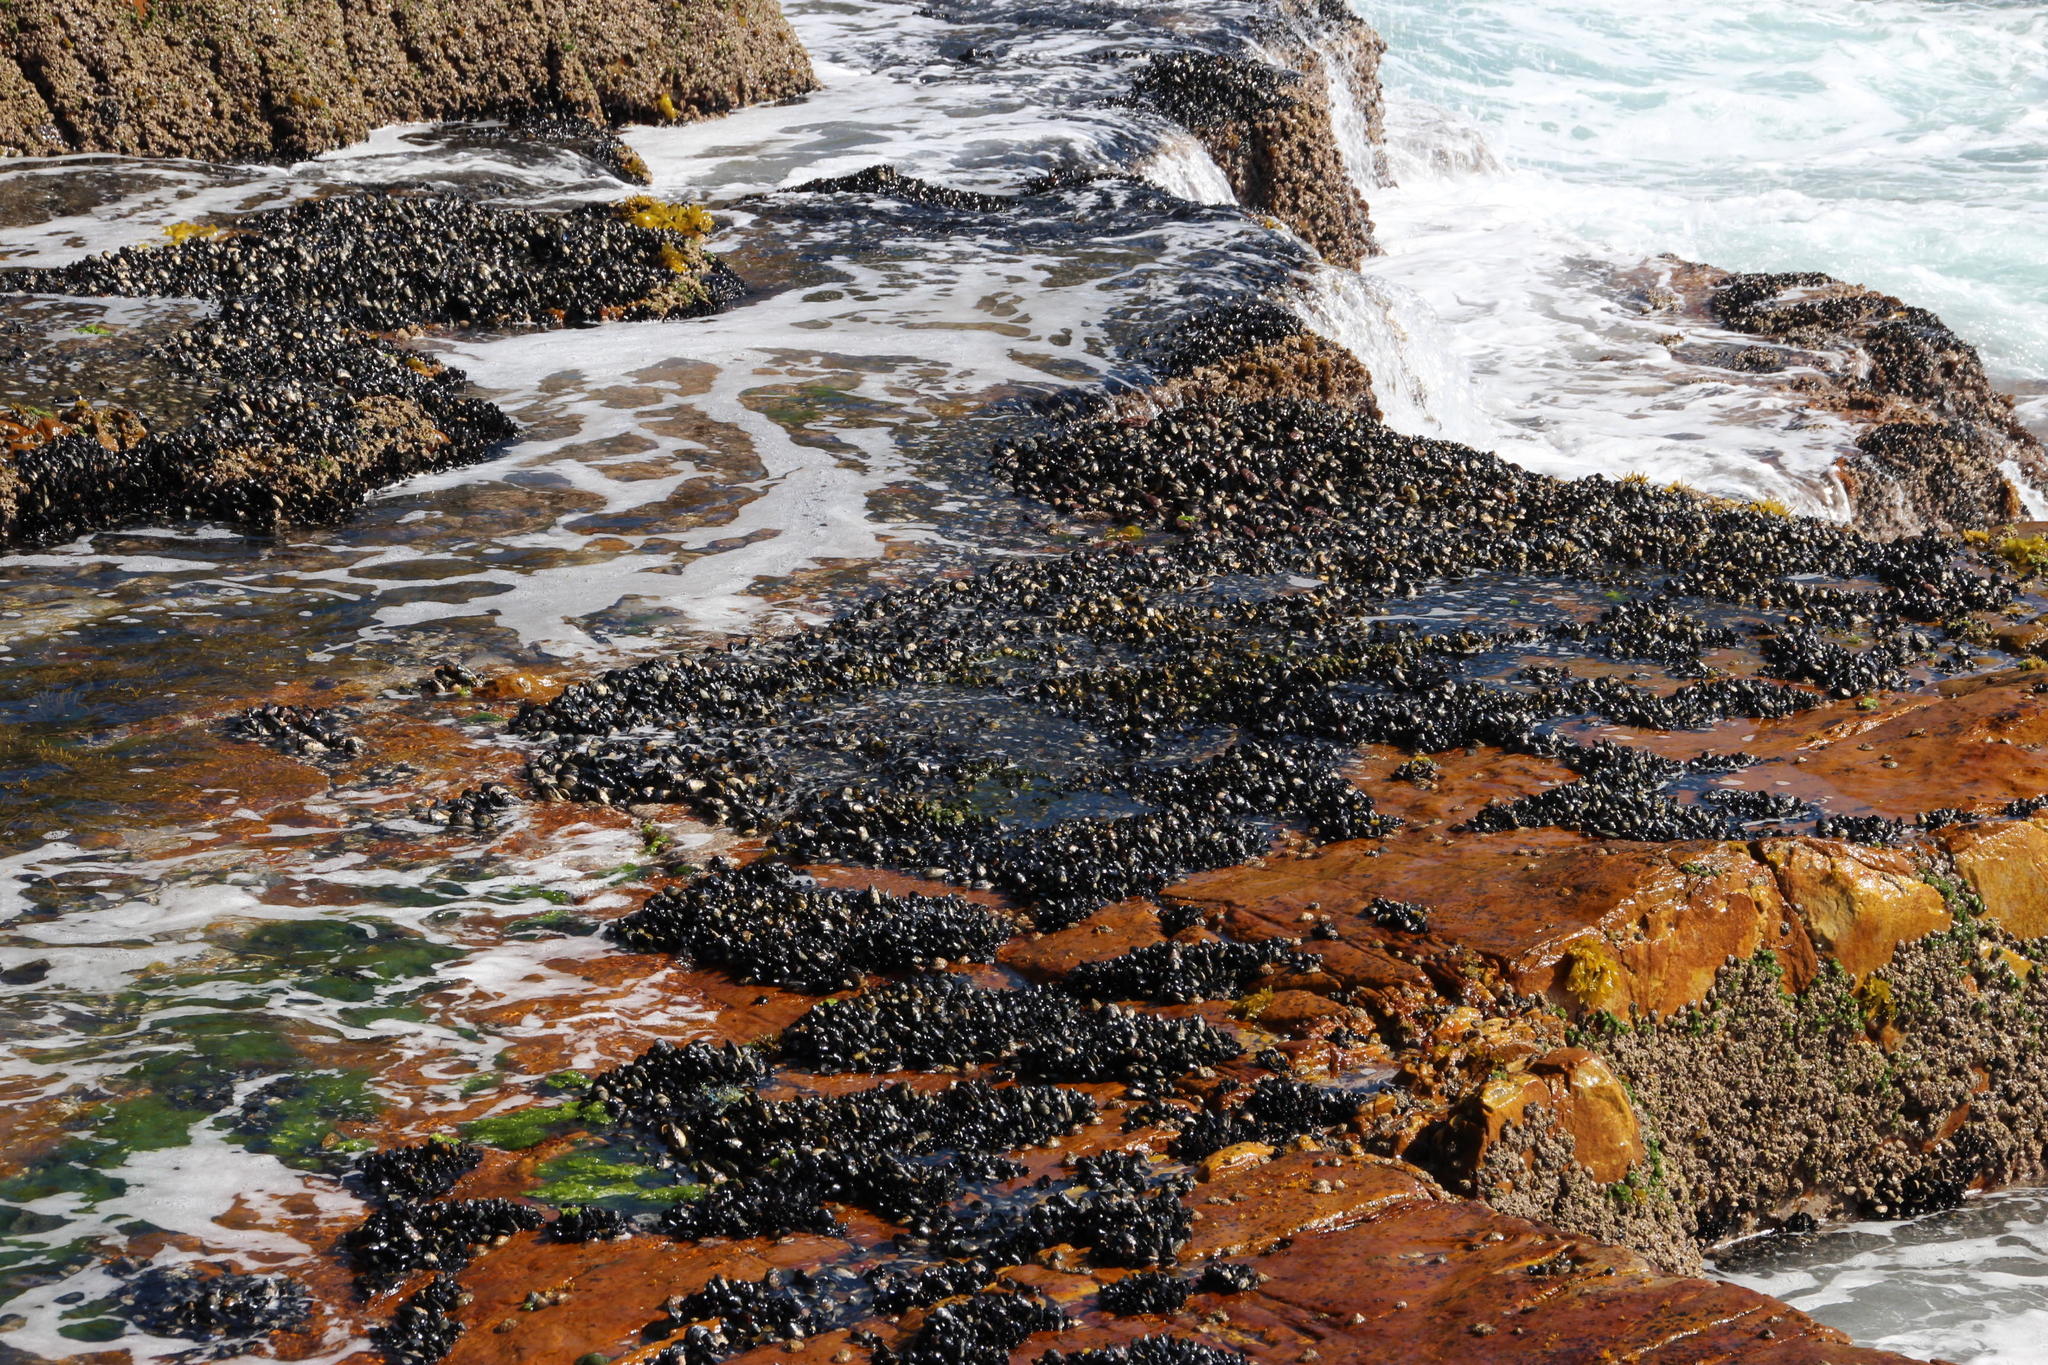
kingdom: Animalia
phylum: Mollusca
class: Bivalvia
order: Mytilida
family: Mytilidae
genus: Choromytilus
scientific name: Choromytilus meridionalis
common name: Black mussel
